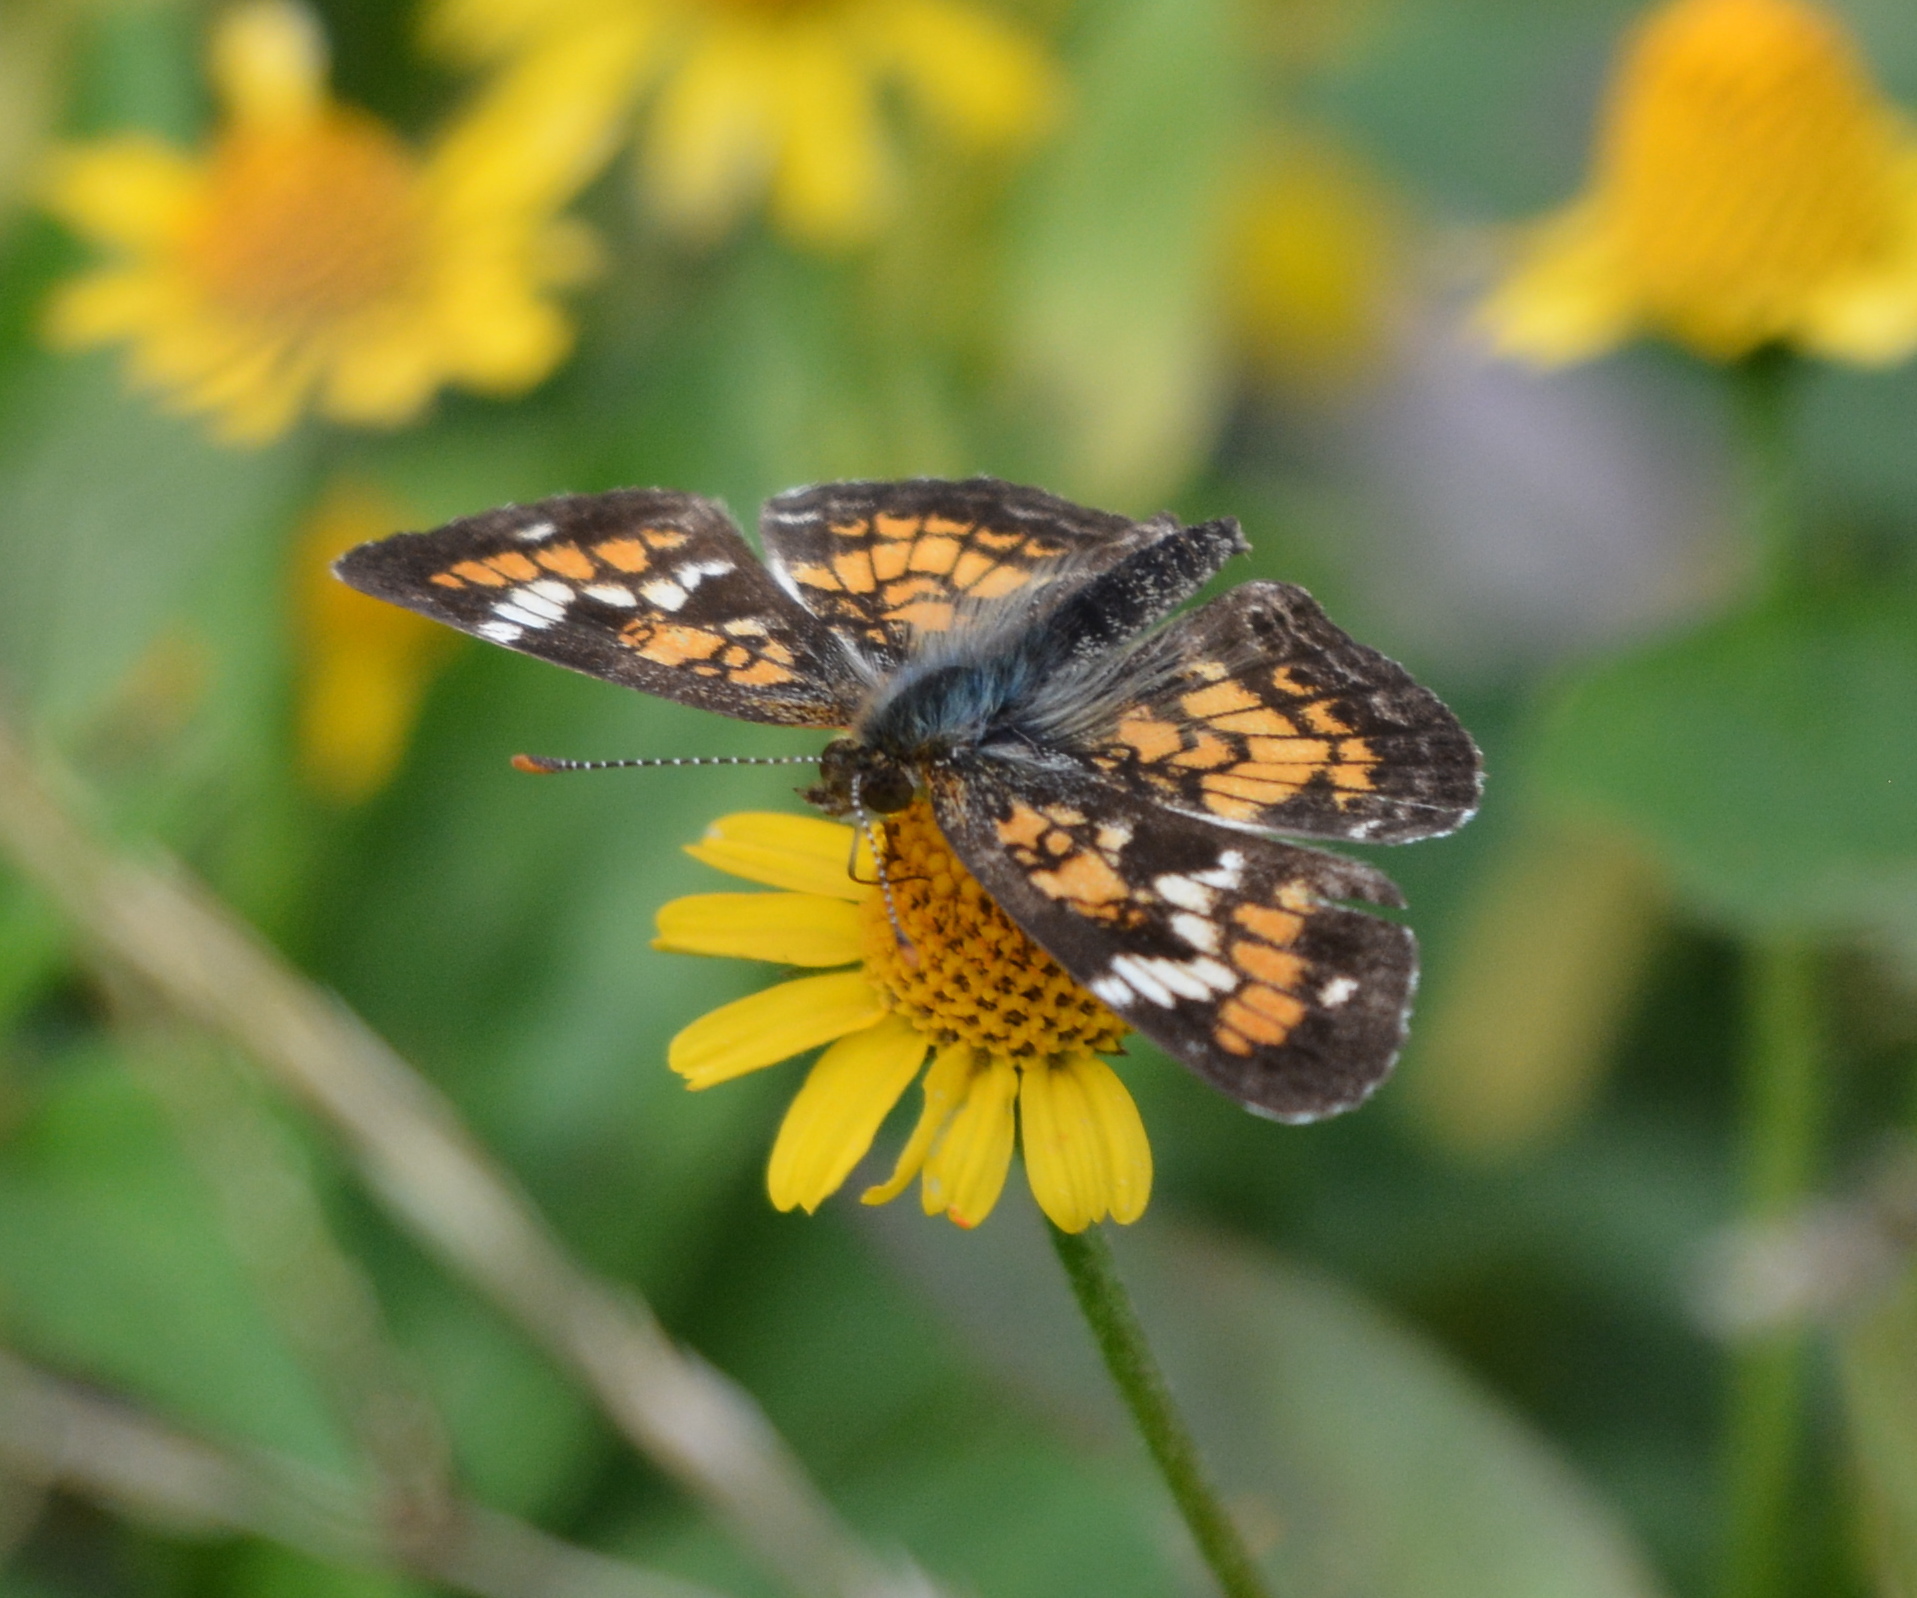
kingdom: Animalia
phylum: Arthropoda
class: Insecta
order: Lepidoptera
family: Nymphalidae
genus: Phyciodes
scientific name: Phyciodes phaon
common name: Phaon crescent
